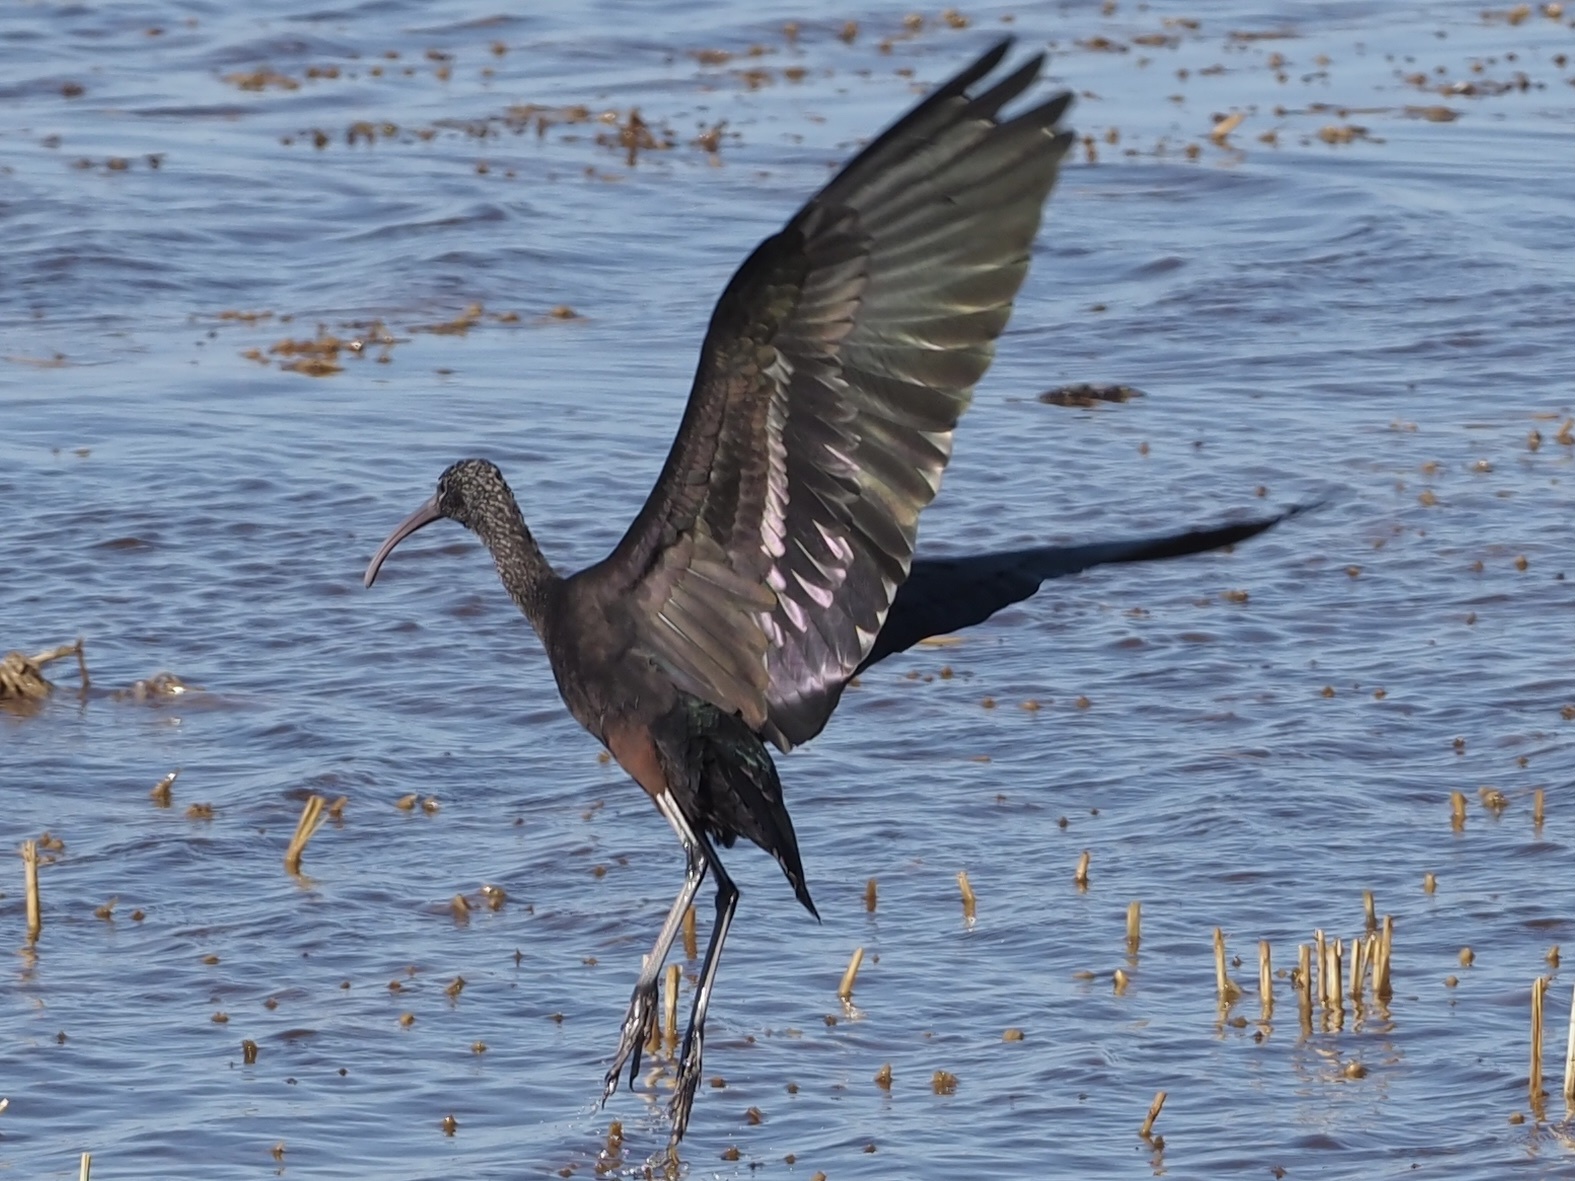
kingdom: Animalia
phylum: Chordata
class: Aves
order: Pelecaniformes
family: Threskiornithidae
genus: Plegadis
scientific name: Plegadis falcinellus
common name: Glossy ibis
